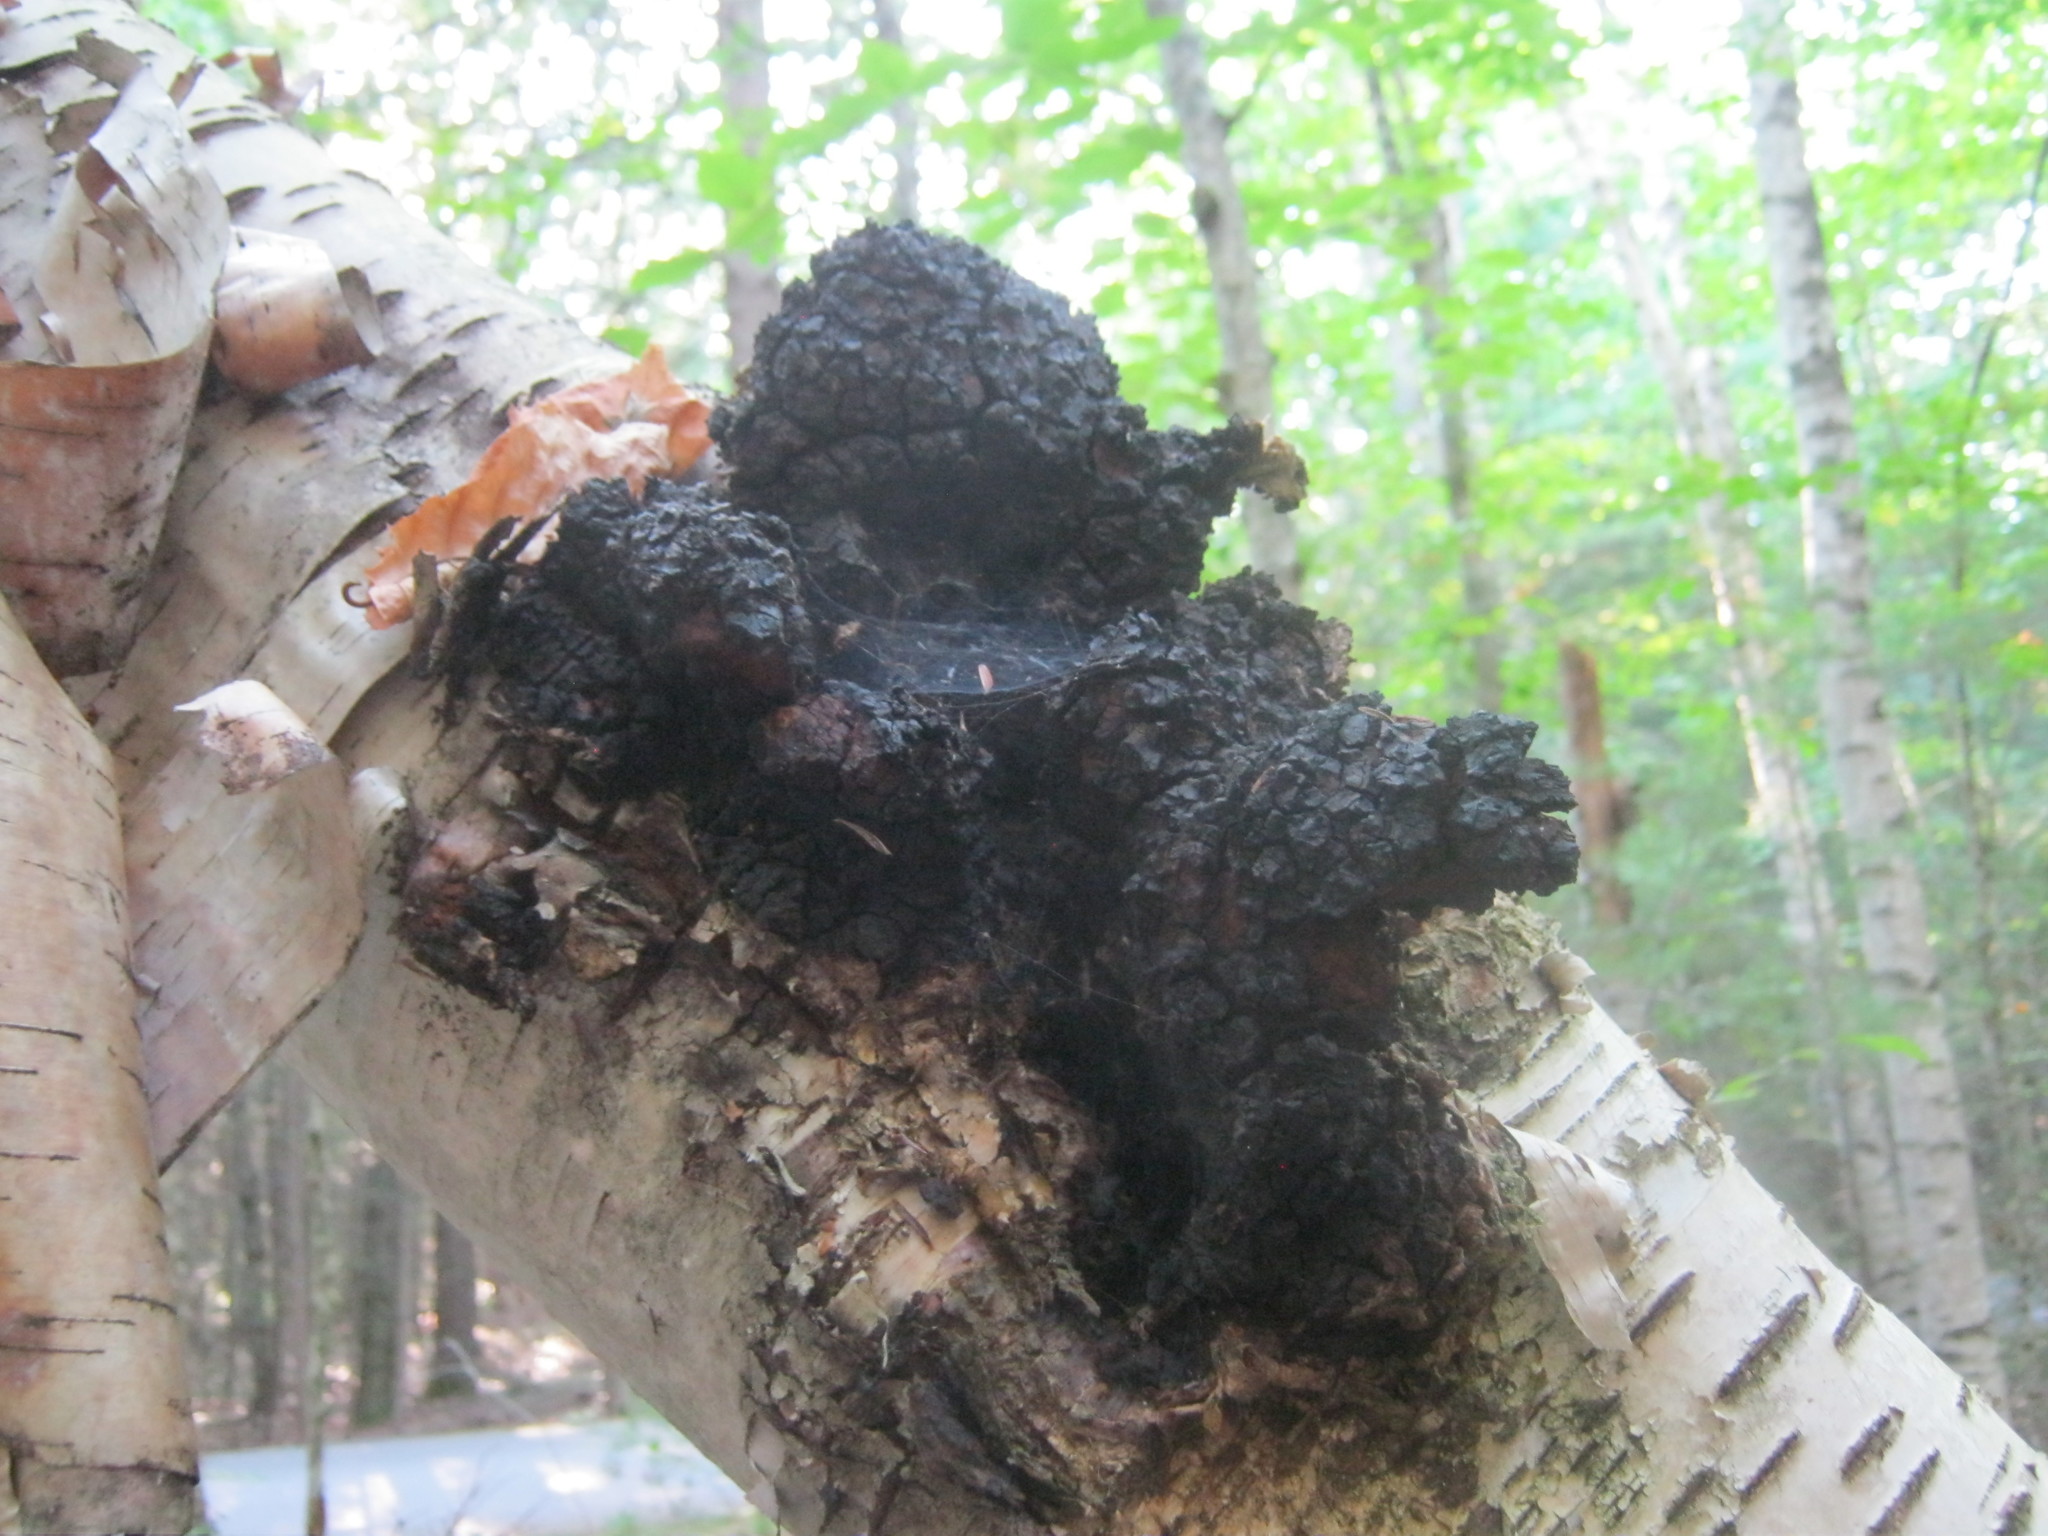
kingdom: Fungi
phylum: Basidiomycota
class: Agaricomycetes
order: Hymenochaetales
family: Hymenochaetaceae
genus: Inonotus
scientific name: Inonotus obliquus
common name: Chaga
